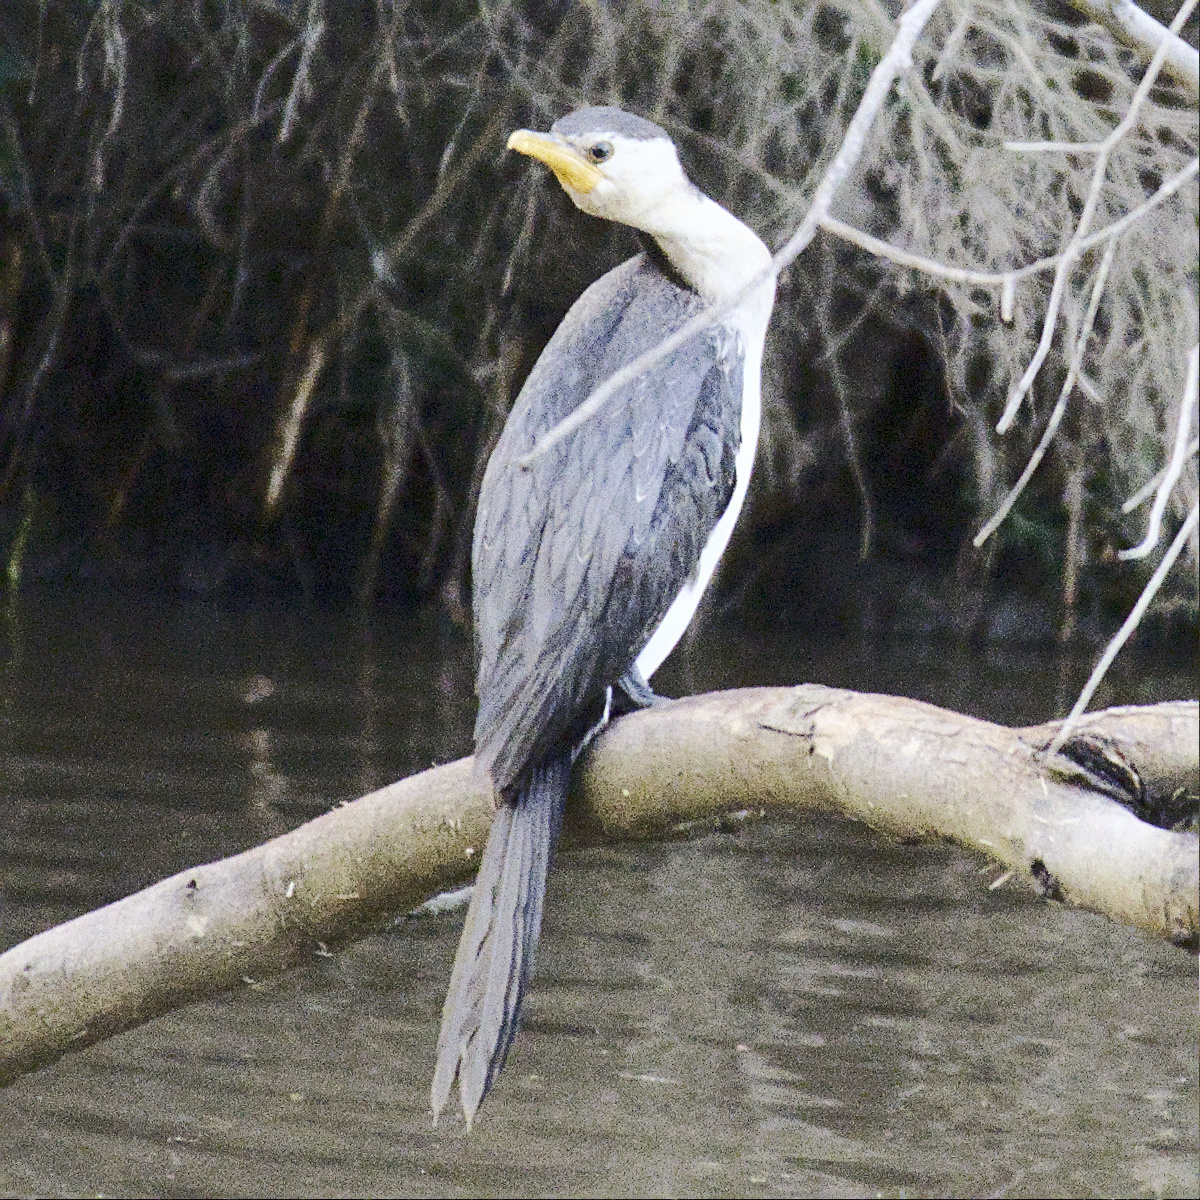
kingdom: Animalia
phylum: Chordata
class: Aves
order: Suliformes
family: Phalacrocoracidae
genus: Microcarbo
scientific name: Microcarbo melanoleucos
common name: Little pied cormorant
